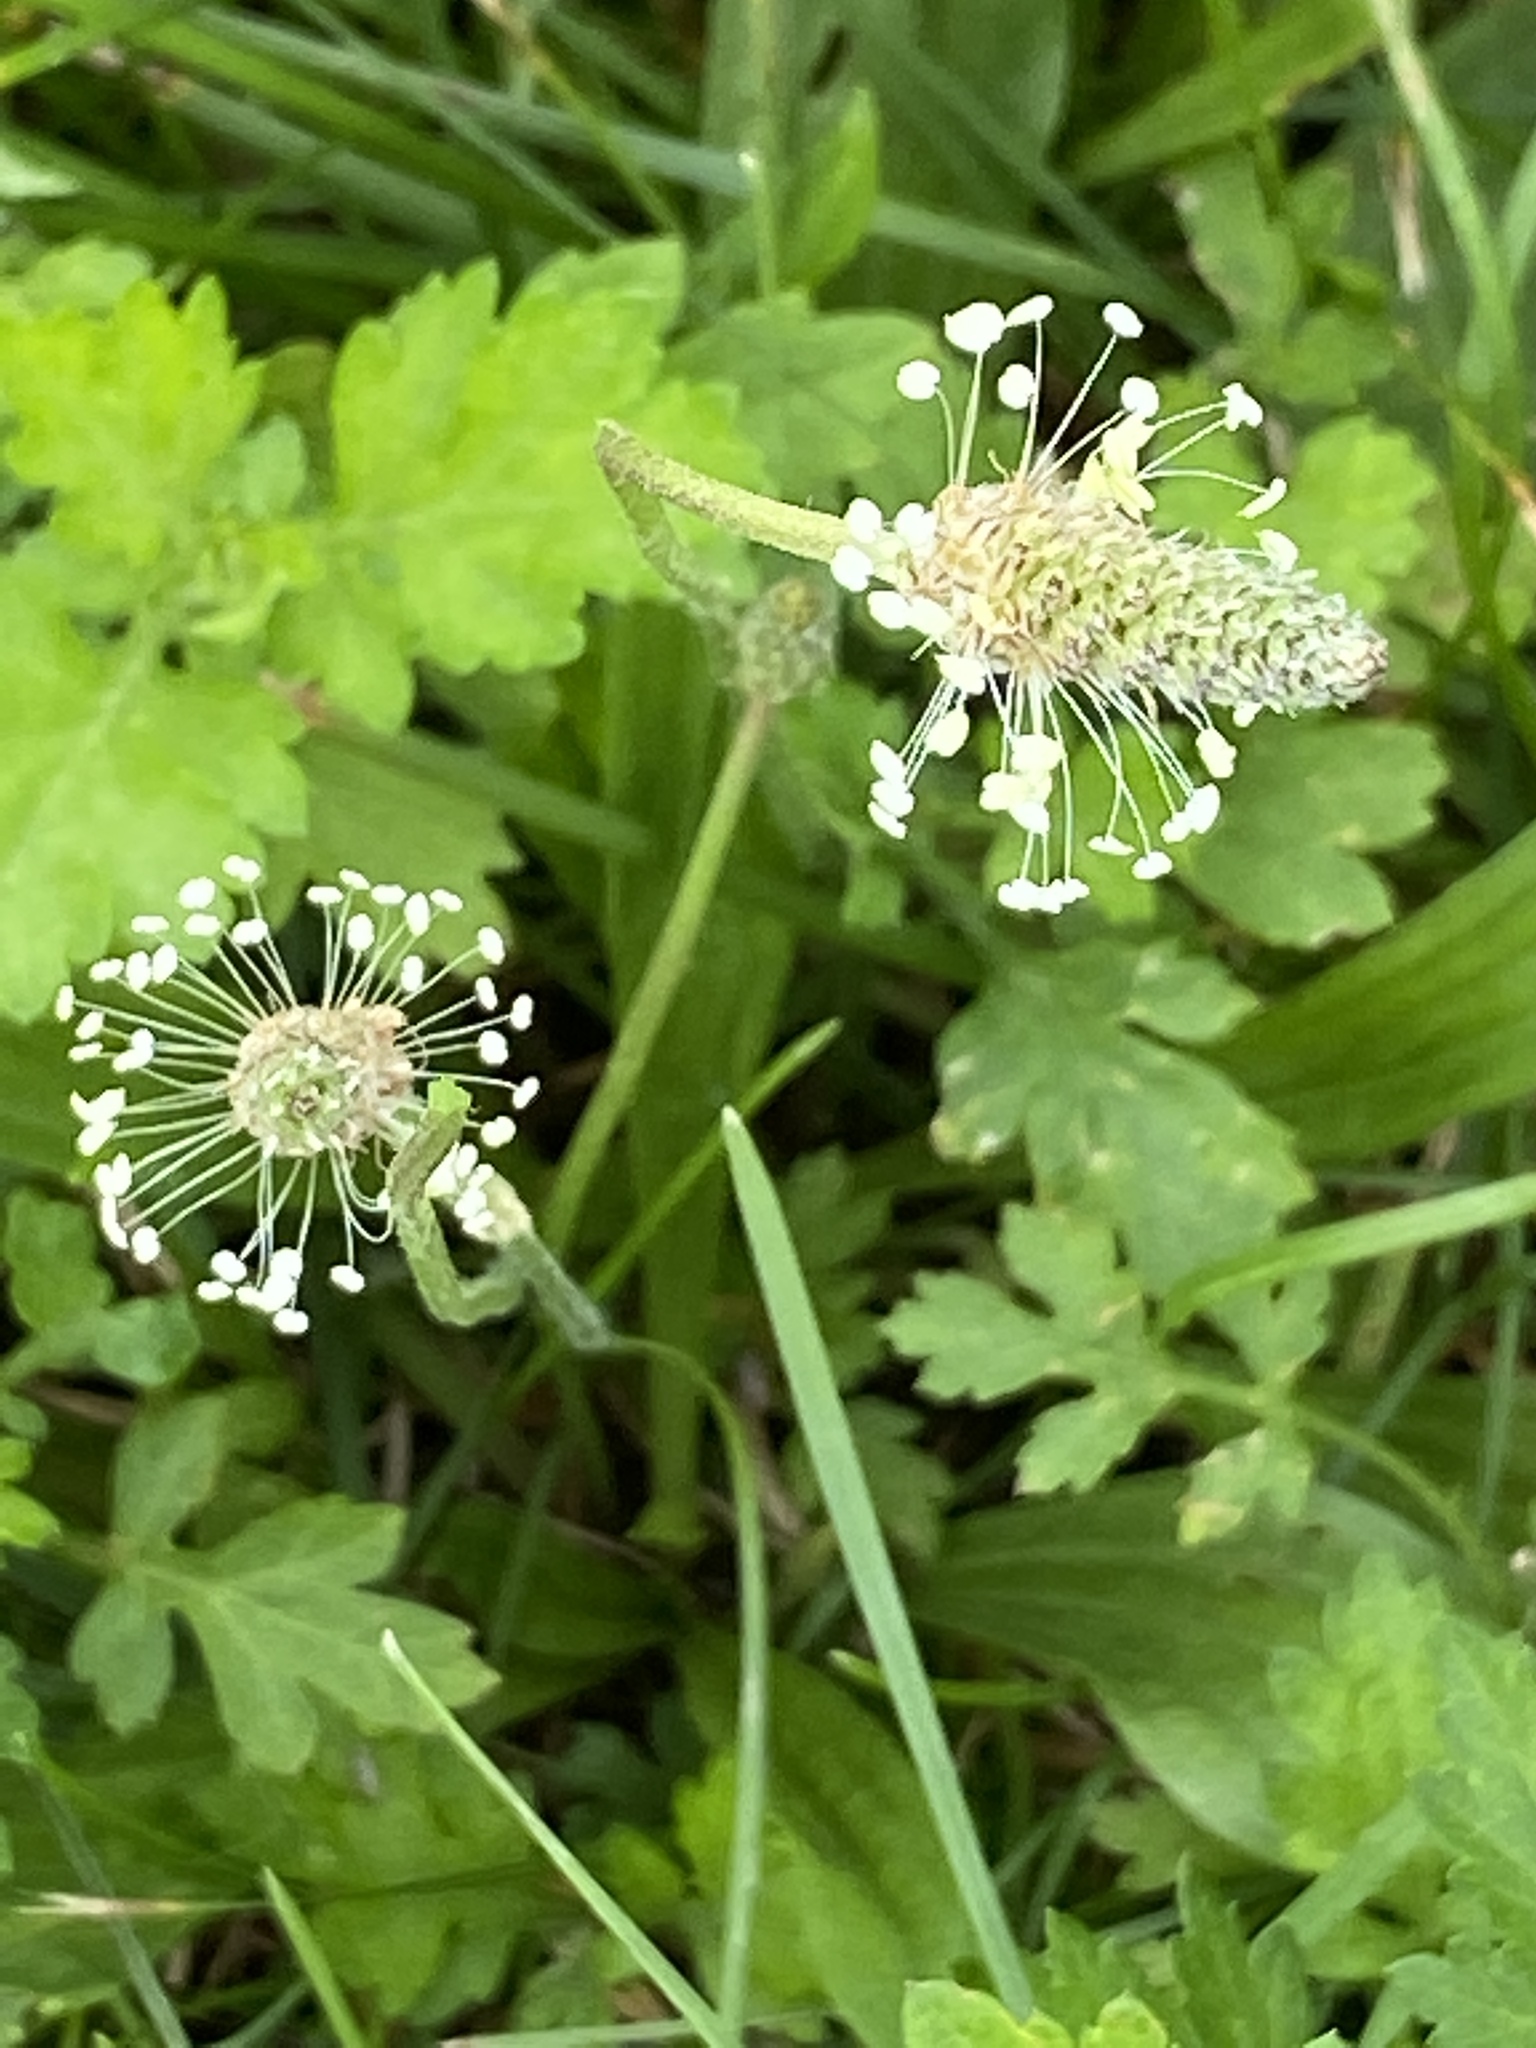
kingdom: Plantae
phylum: Tracheophyta
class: Magnoliopsida
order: Lamiales
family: Plantaginaceae
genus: Plantago
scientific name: Plantago lanceolata
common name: Ribwort plantain
